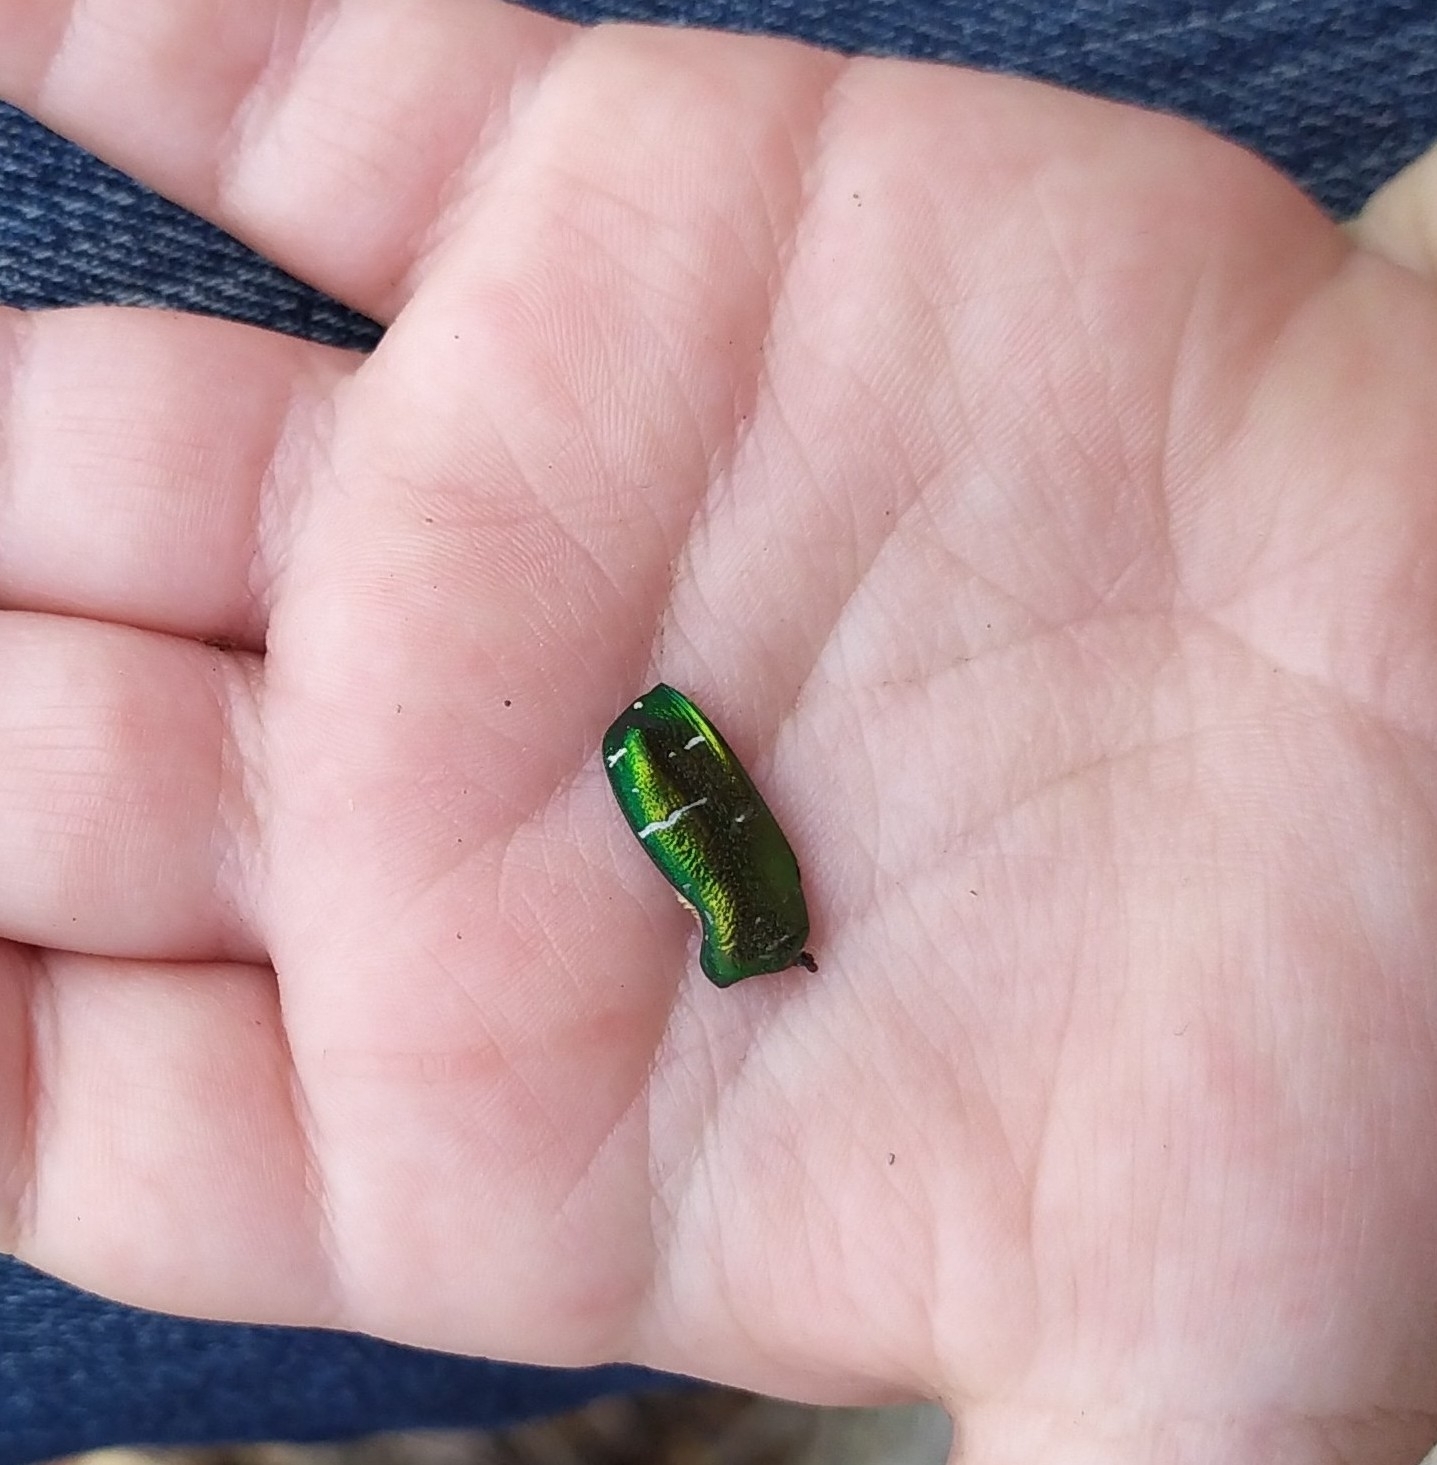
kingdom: Animalia
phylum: Arthropoda
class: Insecta
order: Coleoptera
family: Scarabaeidae
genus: Cetonia
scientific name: Cetonia aurata
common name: Rose chafer
